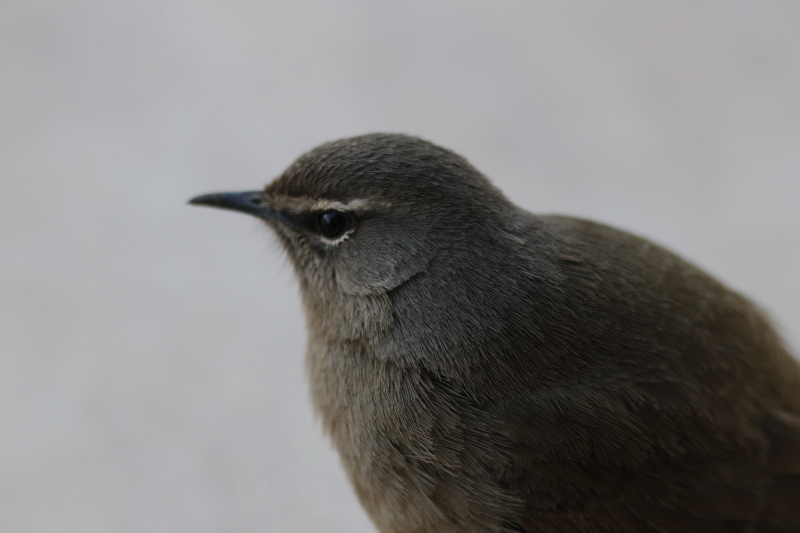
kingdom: Animalia
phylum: Chordata
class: Aves
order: Passeriformes
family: Muscicapidae
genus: Erythropygia
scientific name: Erythropygia coryphoeus
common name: Karoo scrub robin
